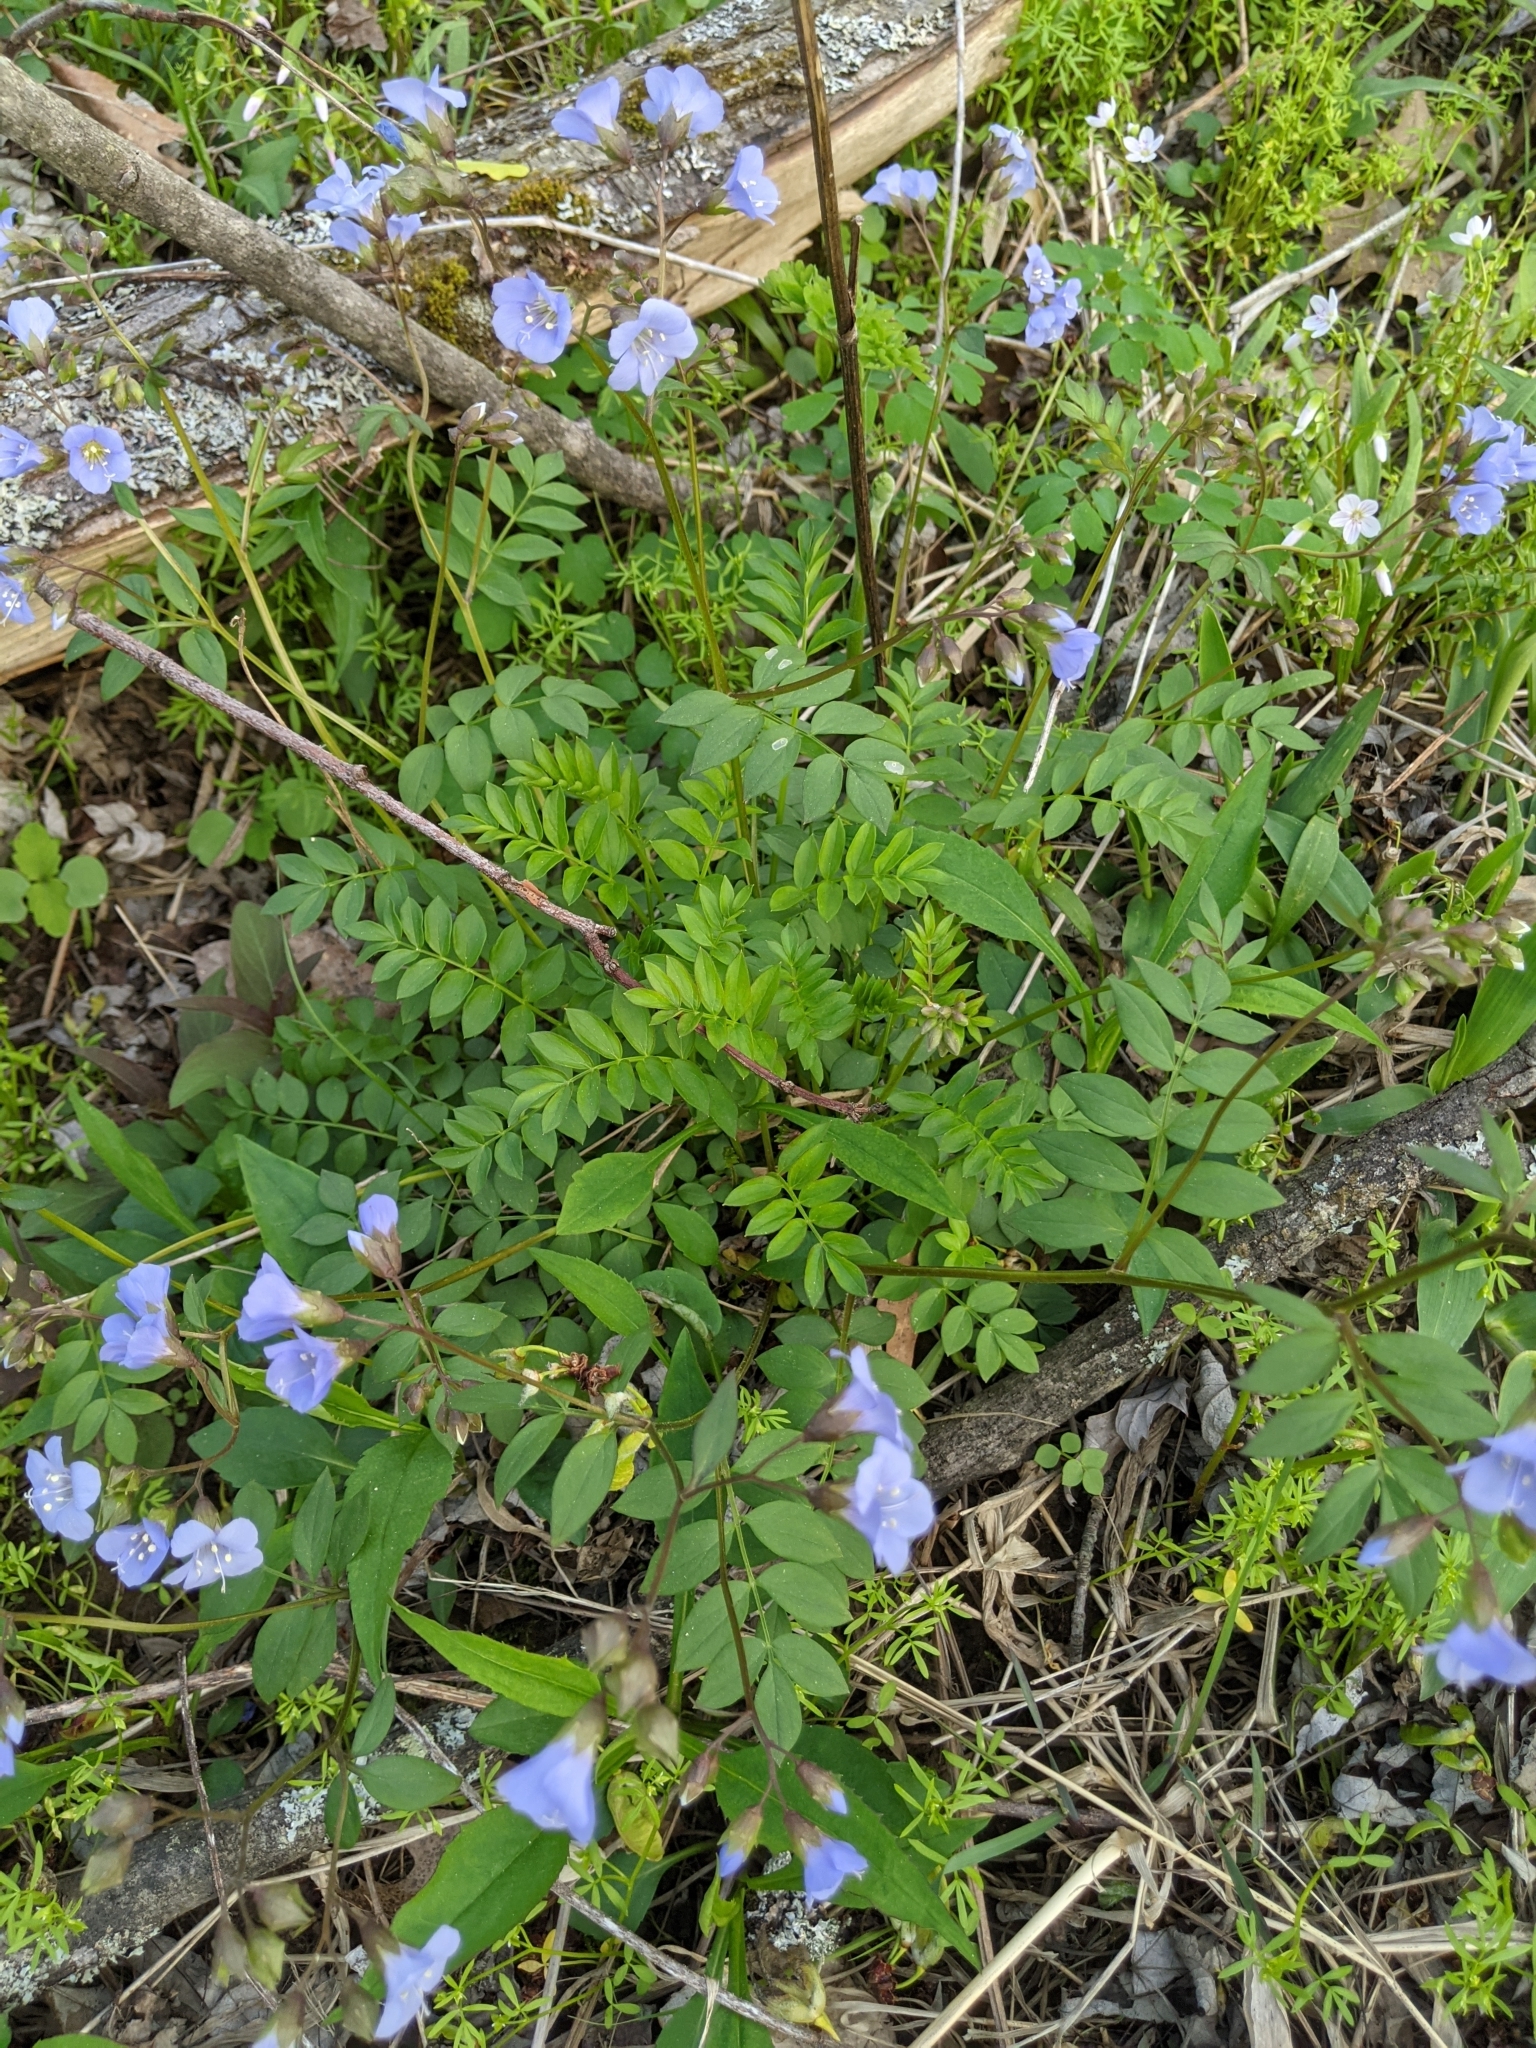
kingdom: Plantae
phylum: Tracheophyta
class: Magnoliopsida
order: Ericales
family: Polemoniaceae
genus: Polemonium
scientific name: Polemonium reptans
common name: Creeping jacob's-ladder
